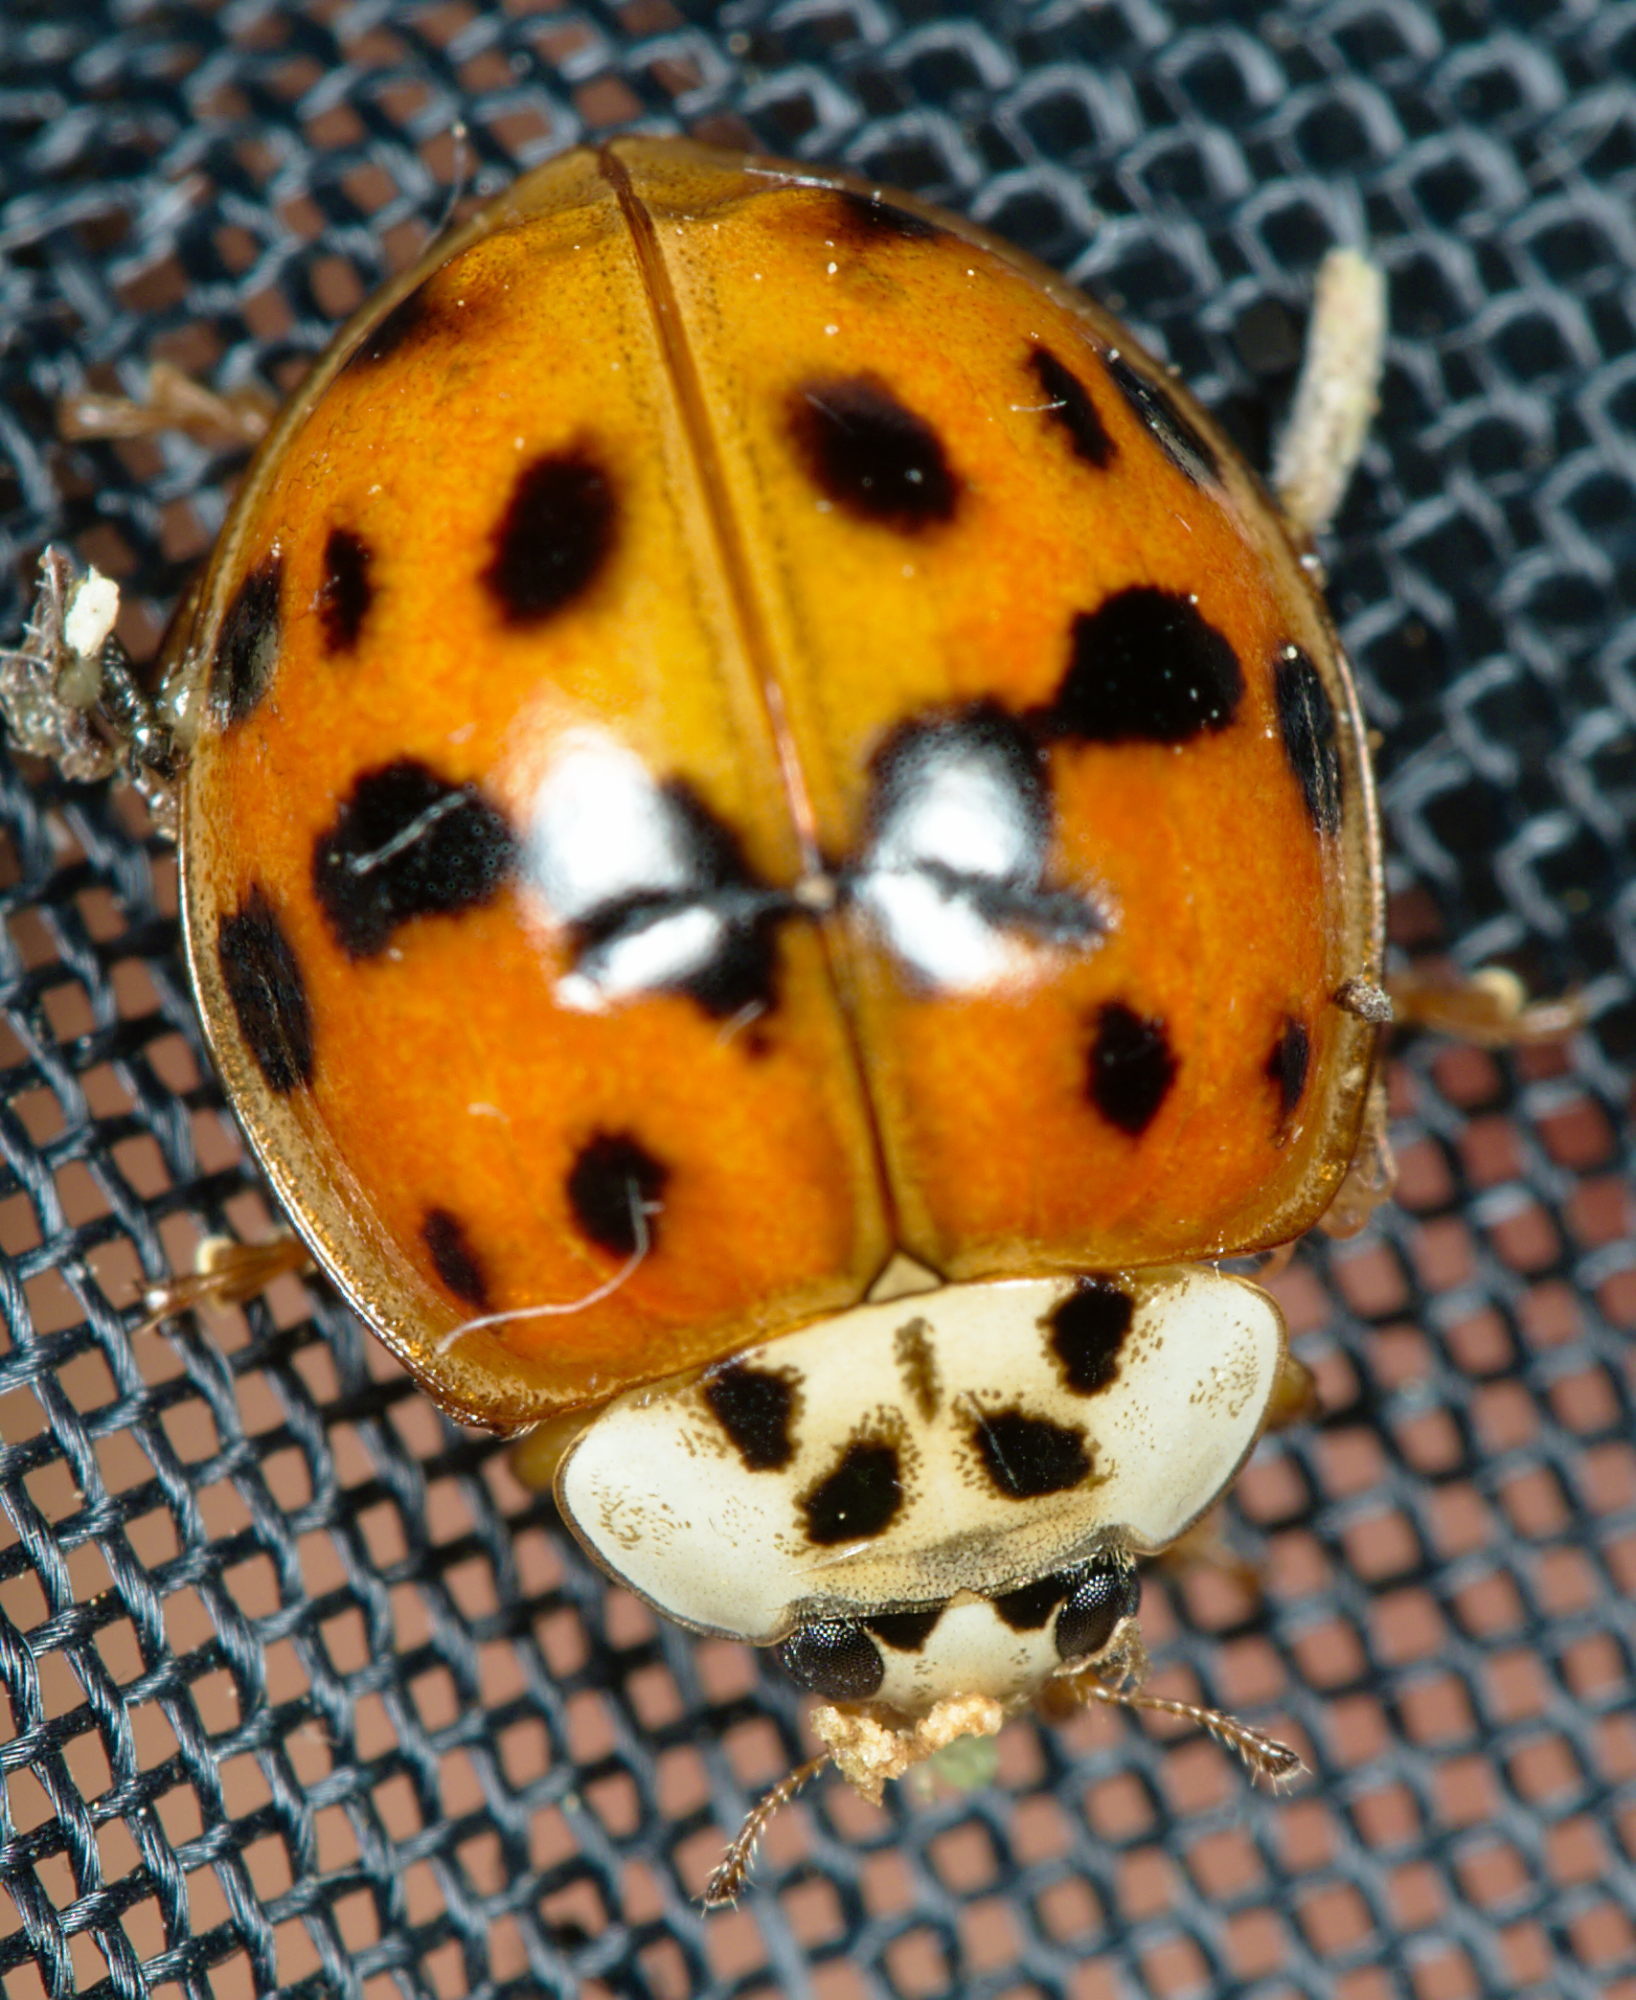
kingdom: Animalia
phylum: Arthropoda
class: Insecta
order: Coleoptera
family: Coccinellidae
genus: Harmonia
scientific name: Harmonia axyridis
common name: Harlequin ladybird
